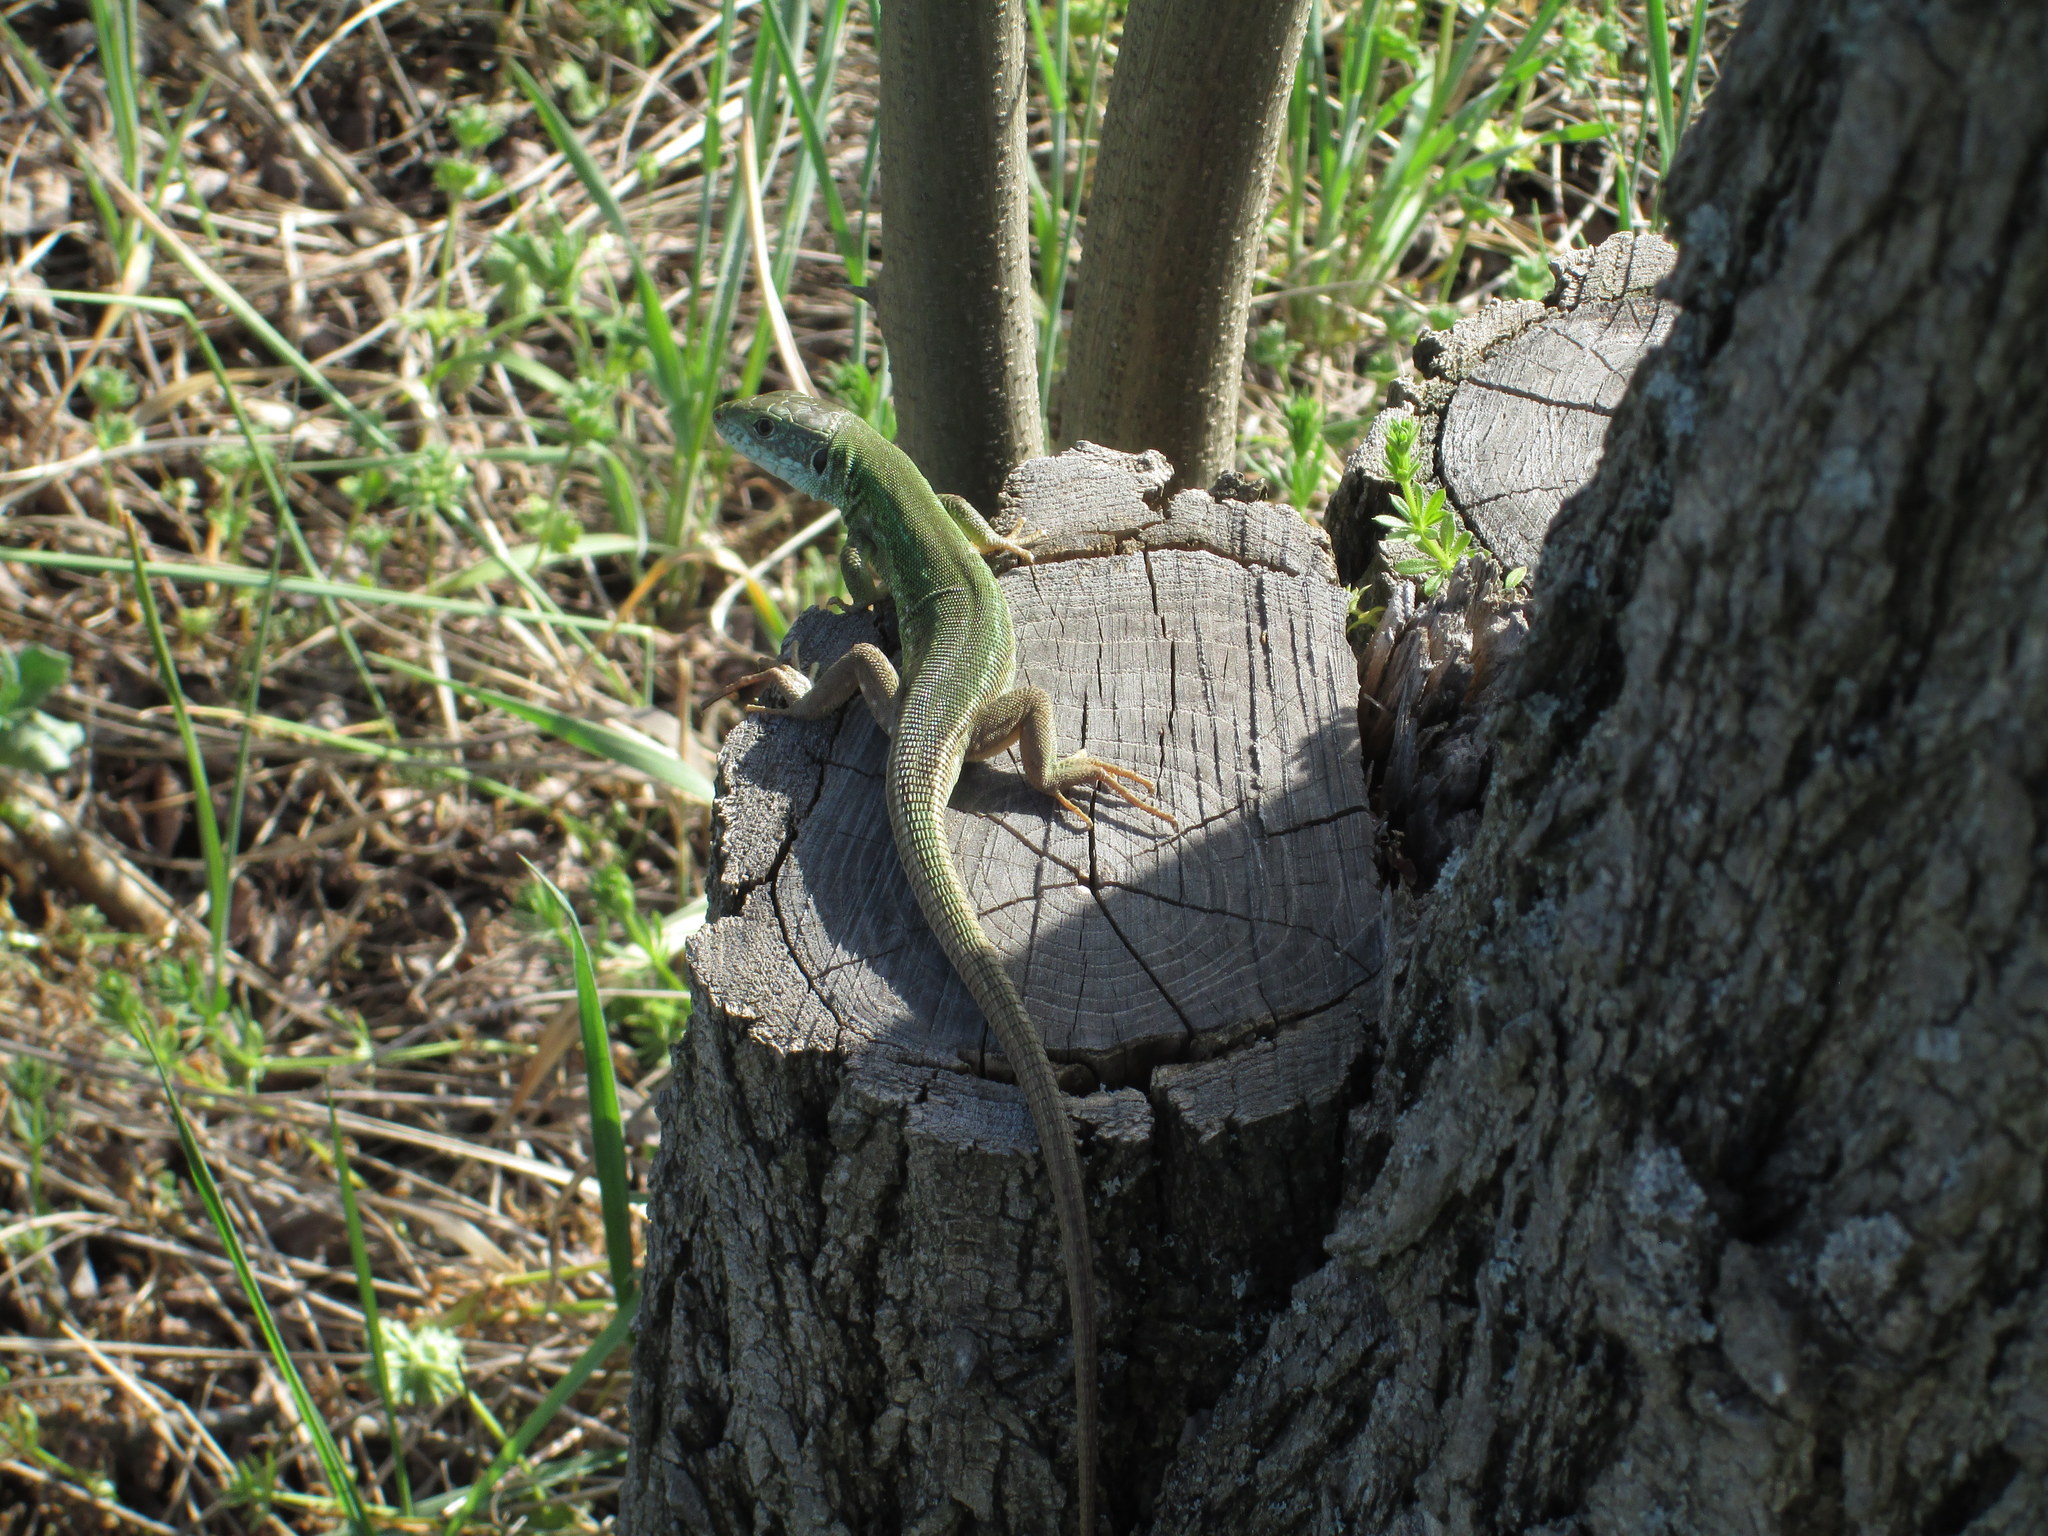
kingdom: Animalia
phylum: Chordata
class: Squamata
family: Lacertidae
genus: Lacerta
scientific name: Lacerta viridis
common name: European green lizard
